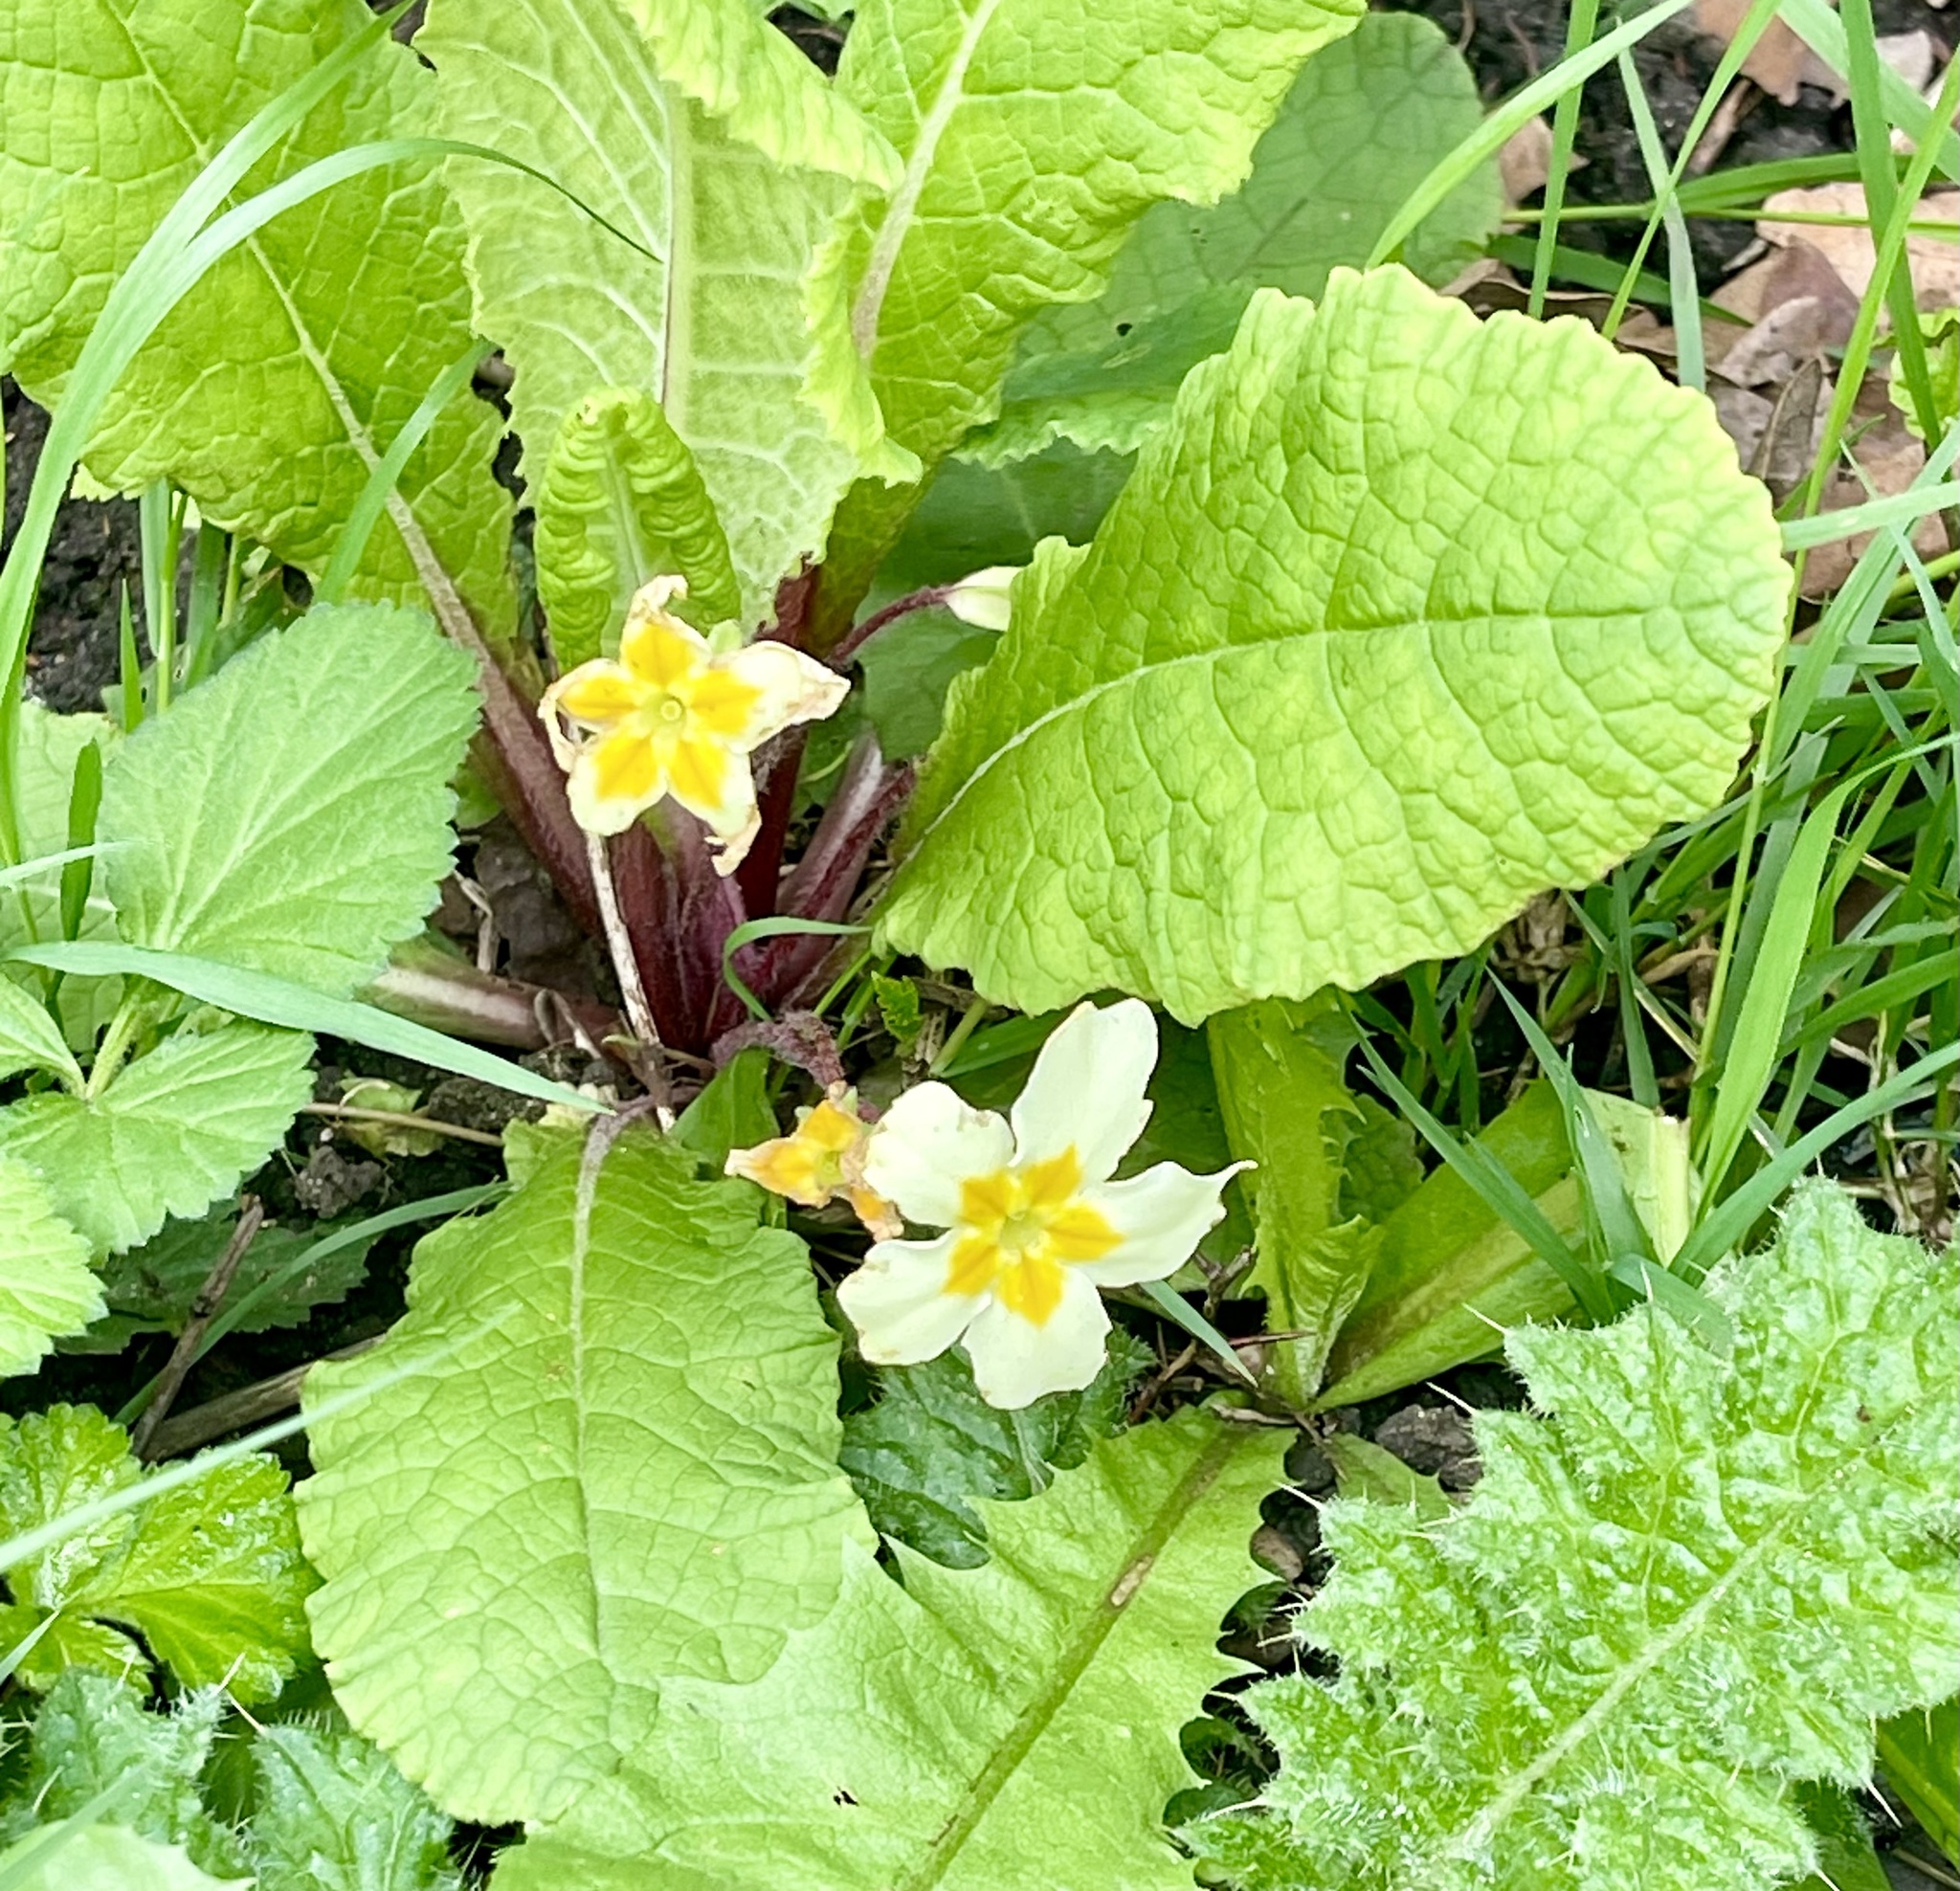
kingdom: Plantae
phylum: Tracheophyta
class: Magnoliopsida
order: Ericales
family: Primulaceae
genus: Primula
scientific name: Primula vulgaris
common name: Primrose
